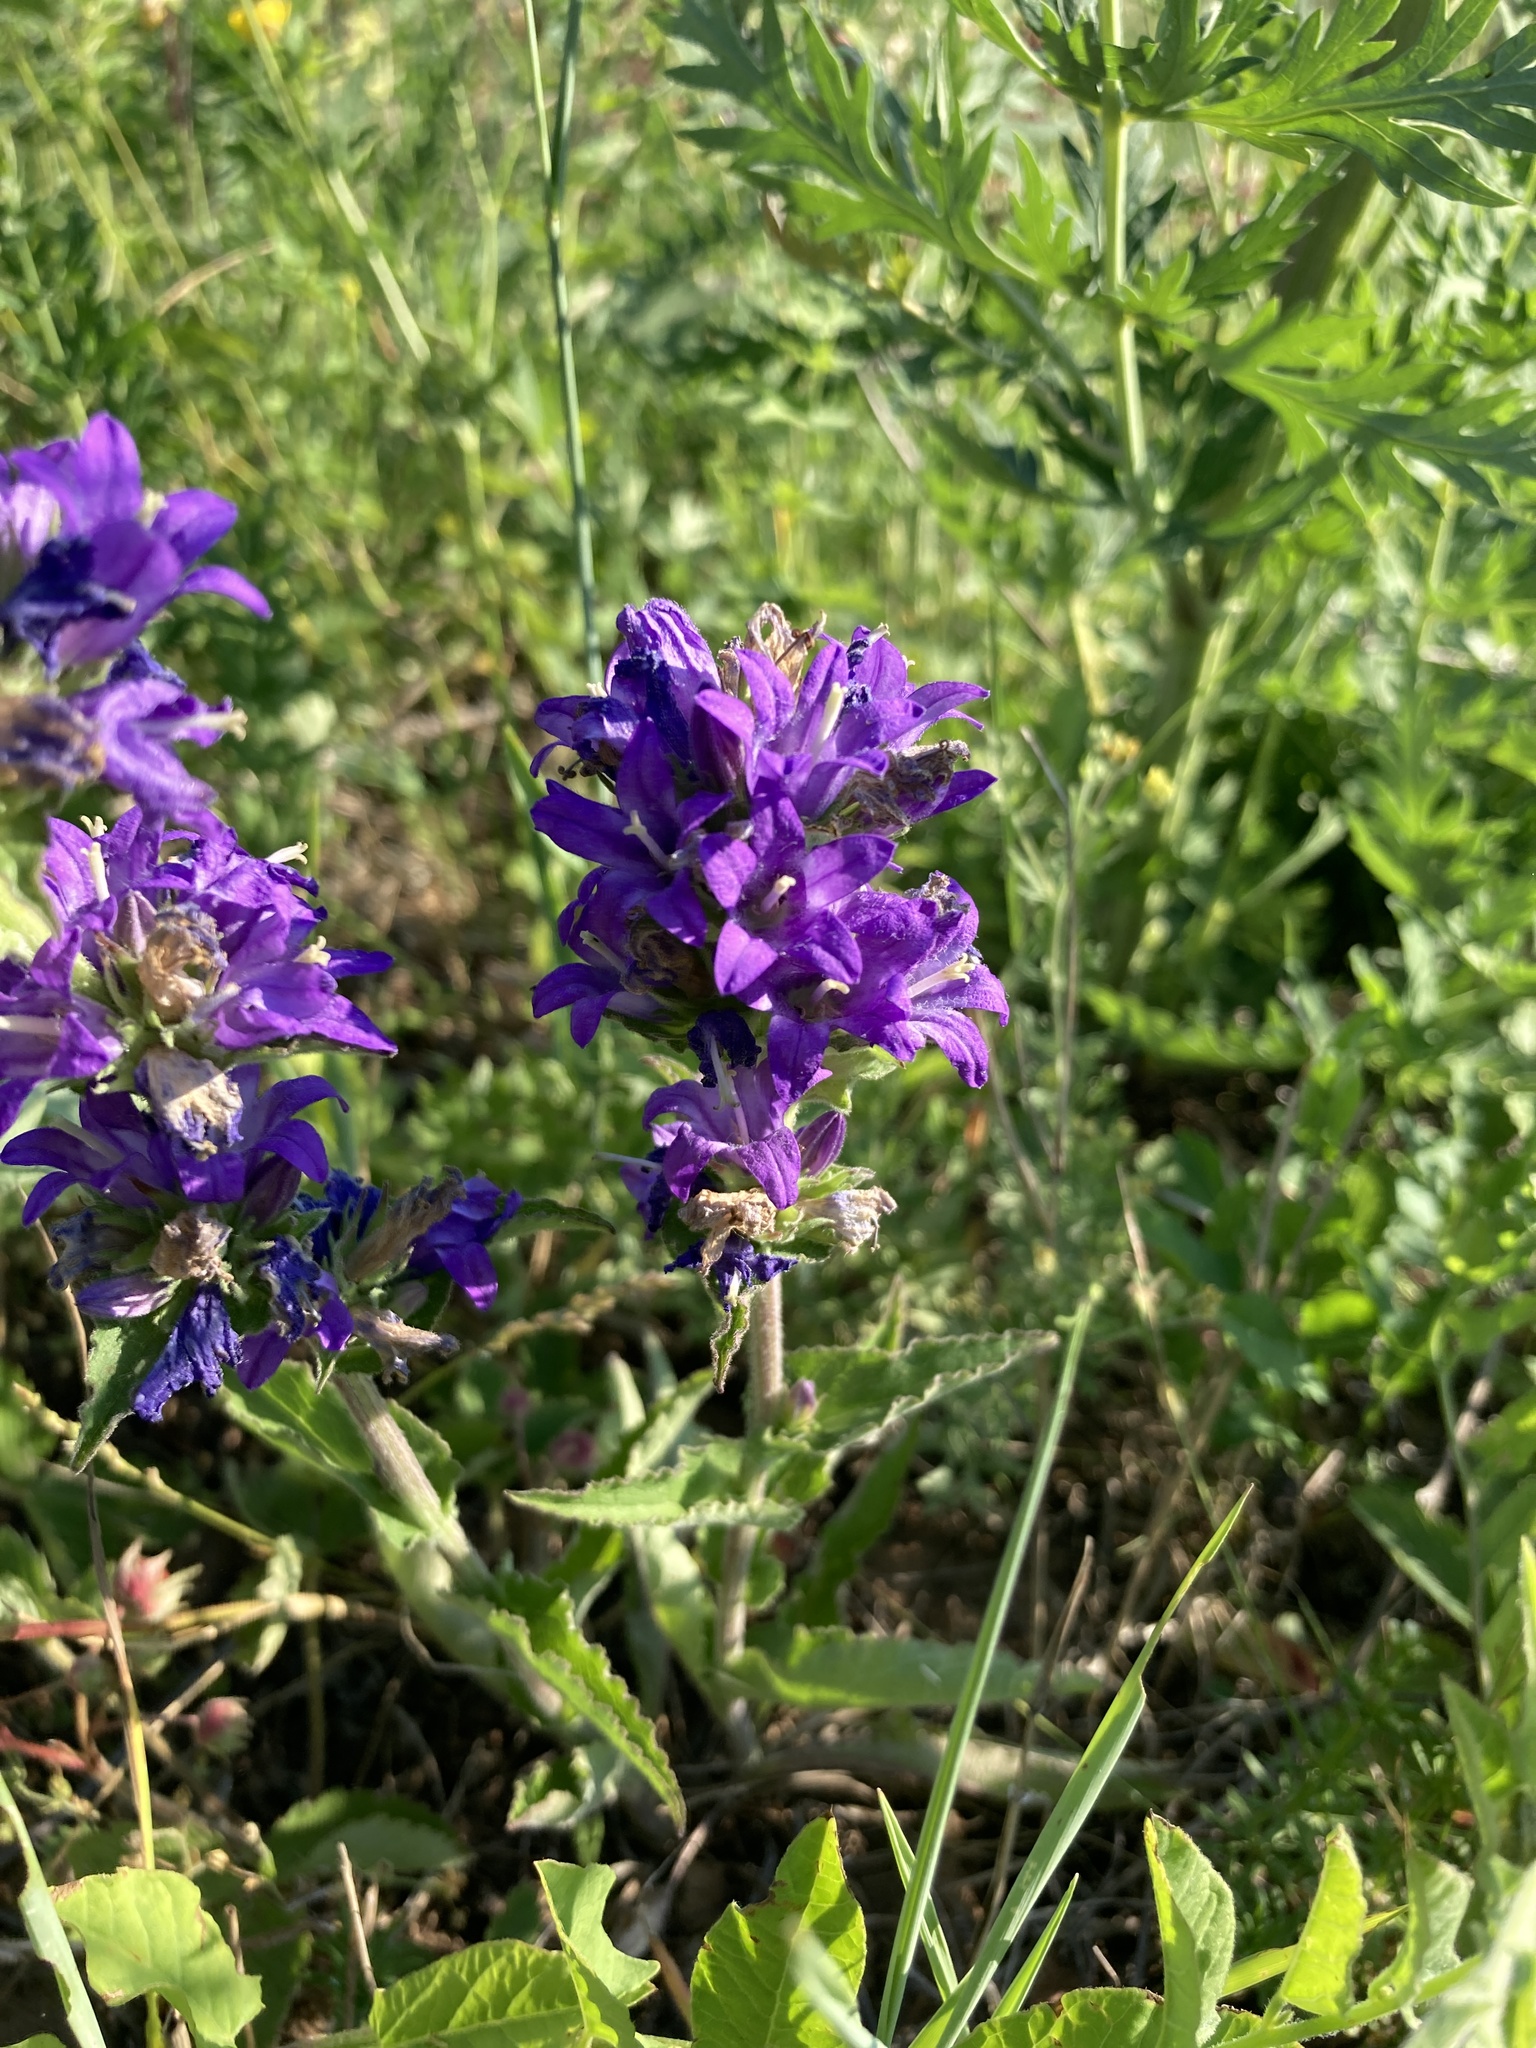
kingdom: Plantae
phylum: Tracheophyta
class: Magnoliopsida
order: Asterales
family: Campanulaceae
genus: Campanula
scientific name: Campanula glomerata
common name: Clustered bellflower
